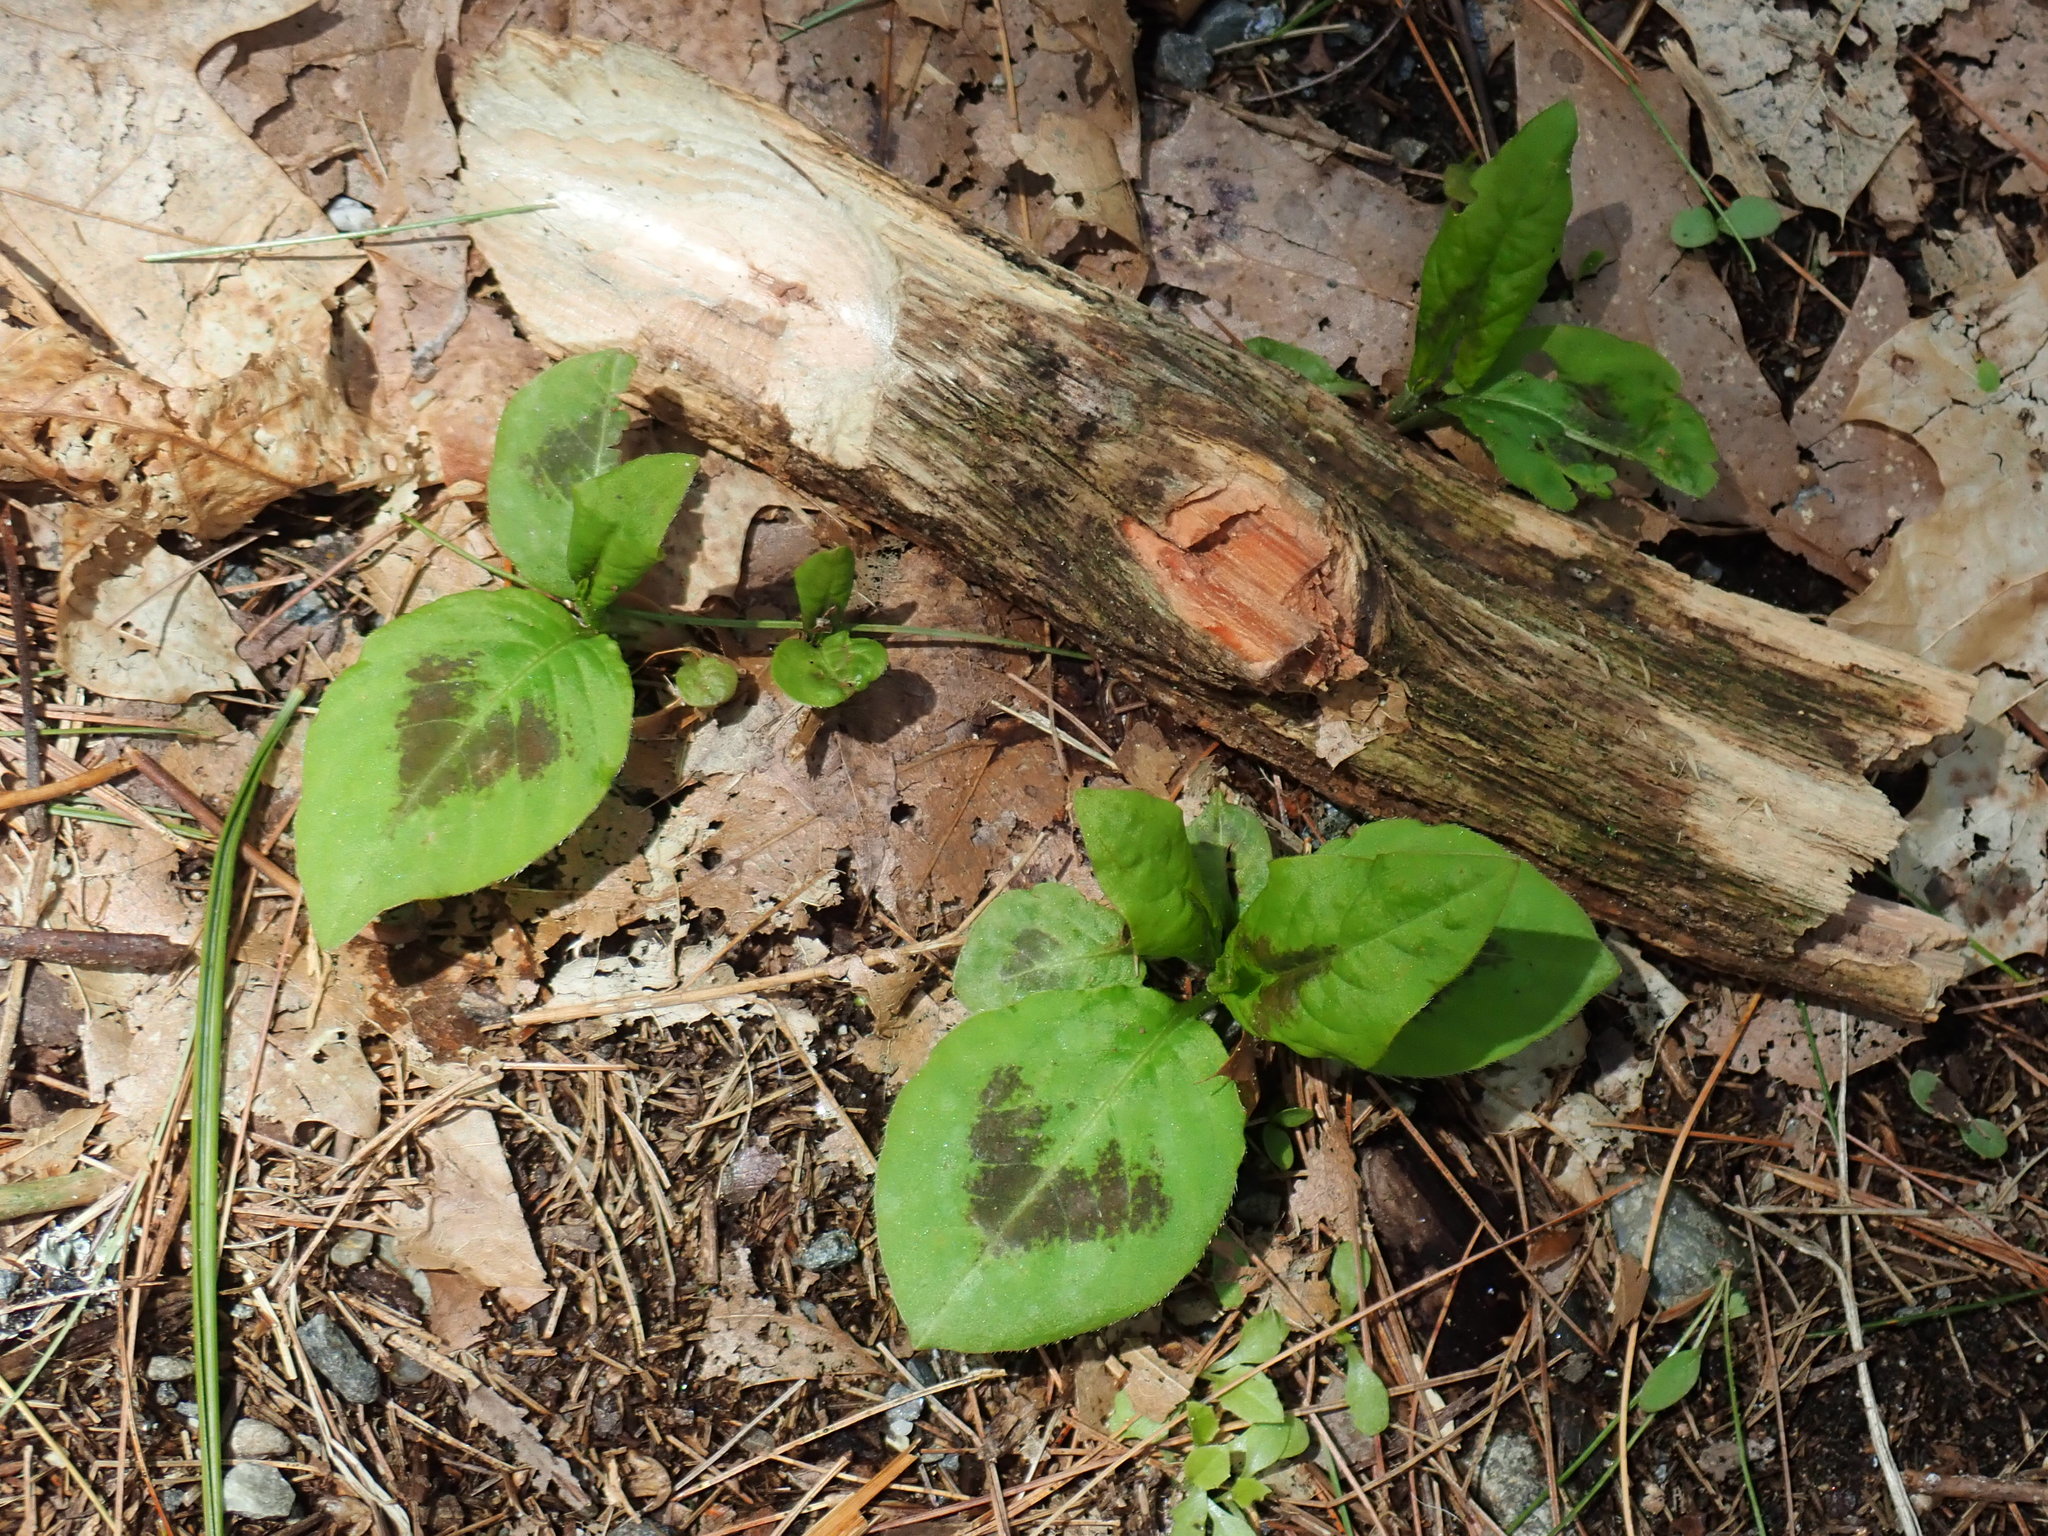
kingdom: Plantae
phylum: Tracheophyta
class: Magnoliopsida
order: Caryophyllales
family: Polygonaceae
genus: Persicaria
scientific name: Persicaria virginiana
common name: Jumpseed
